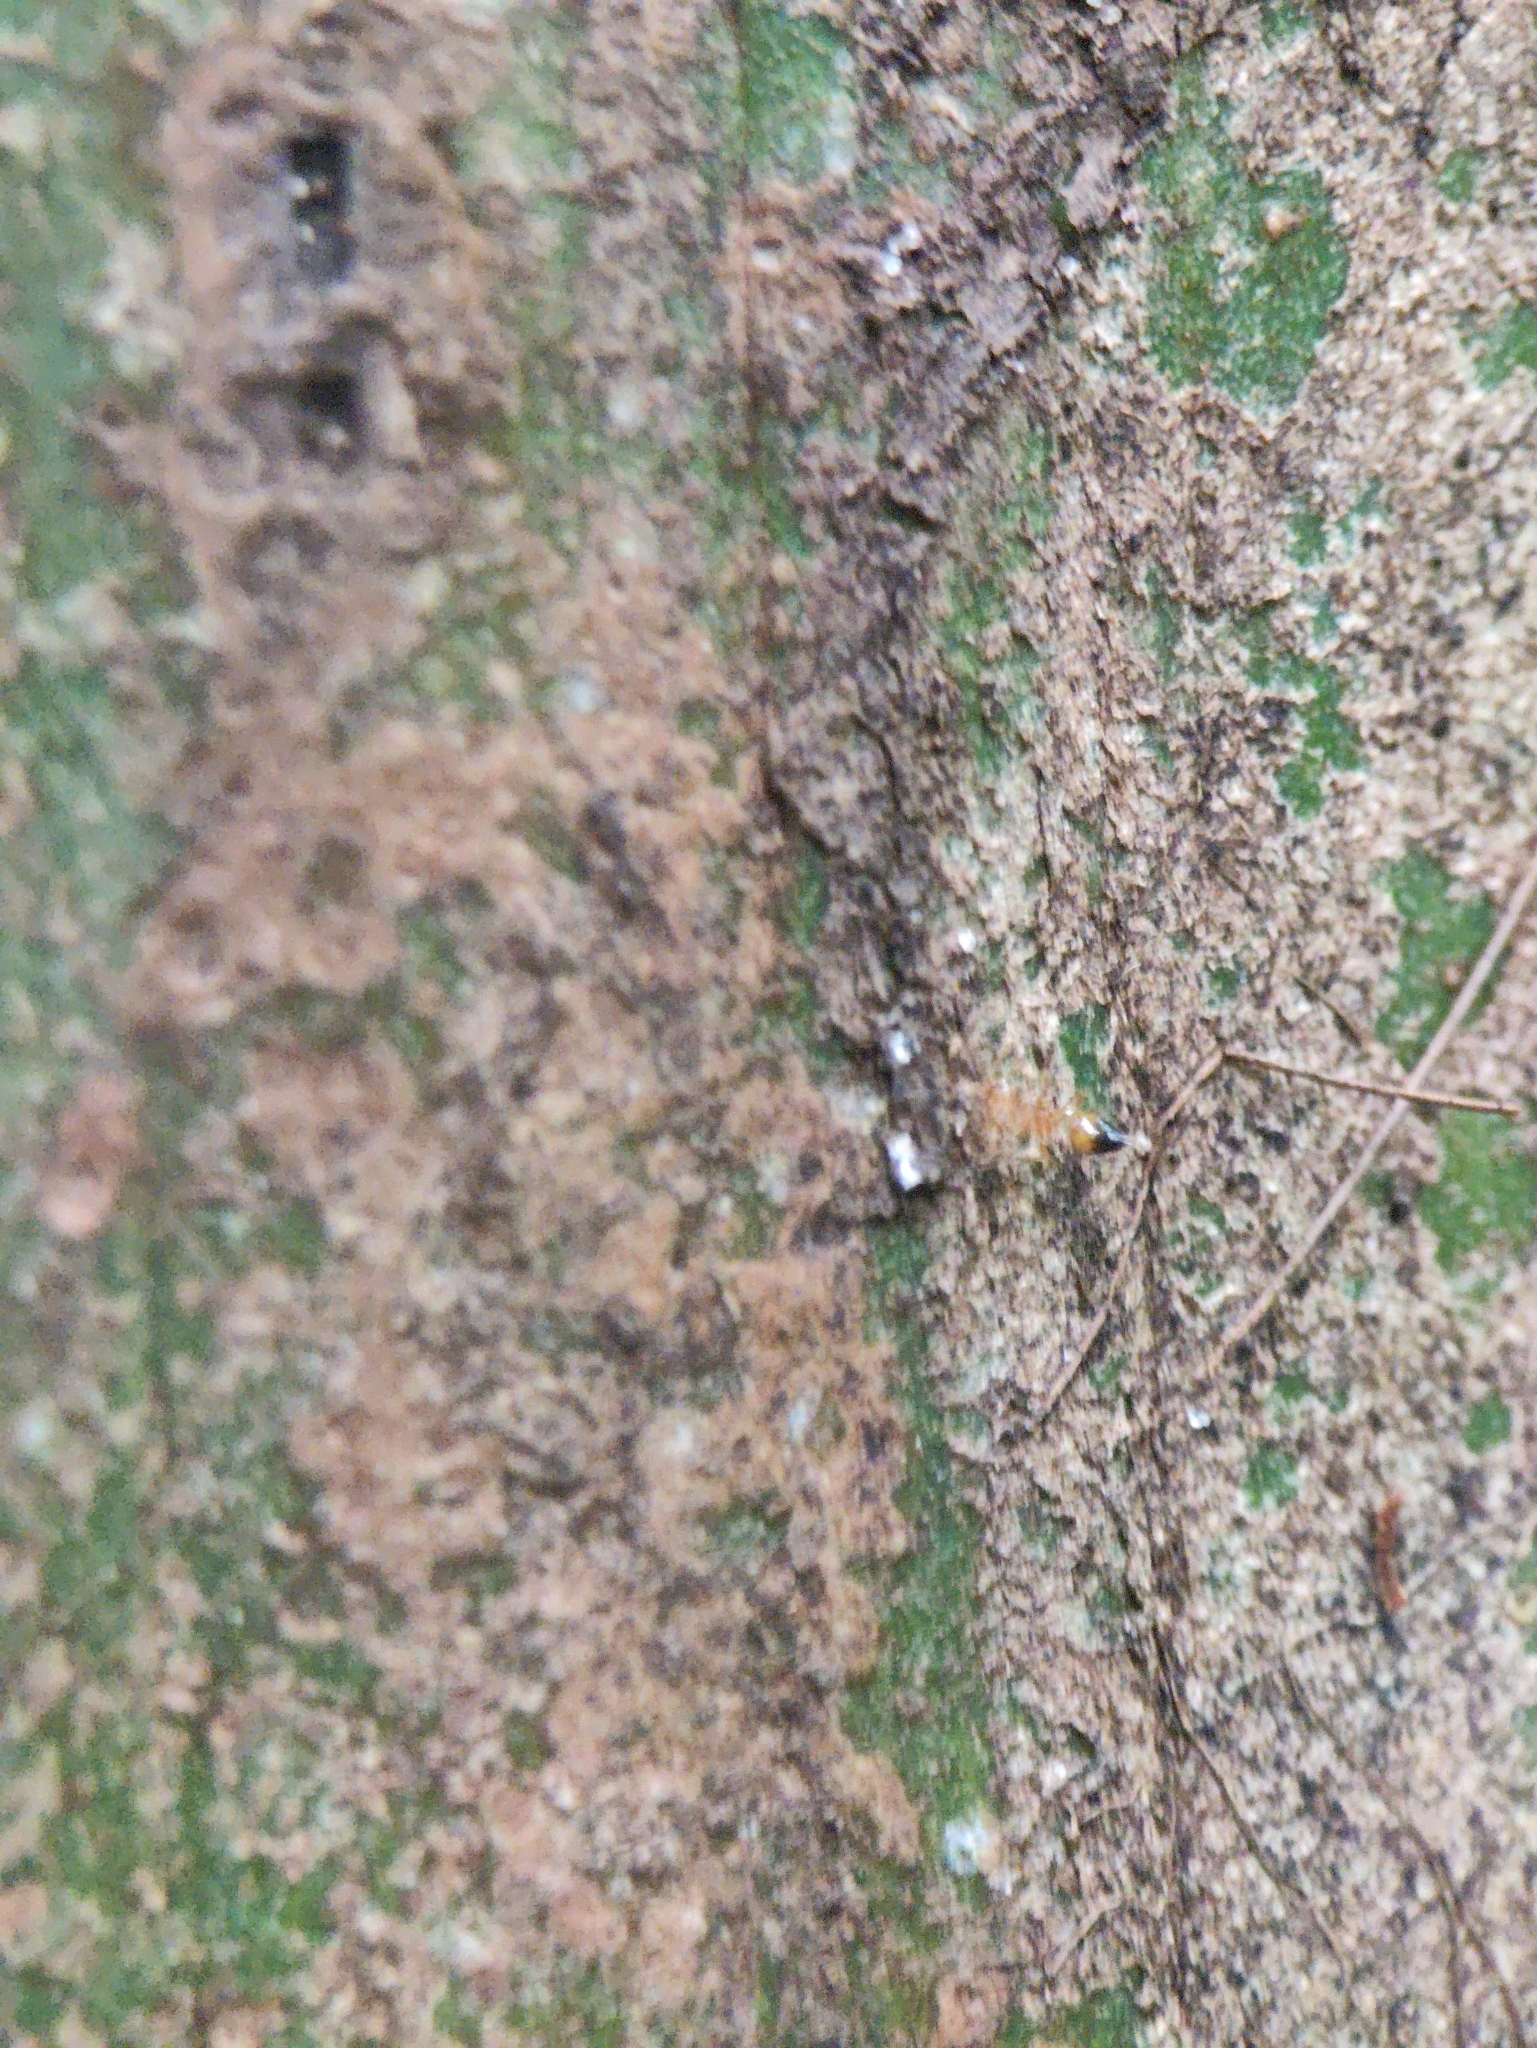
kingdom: Animalia
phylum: Arthropoda
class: Insecta
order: Hymenoptera
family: Formicidae
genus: Crematogaster
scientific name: Crematogaster biroi
